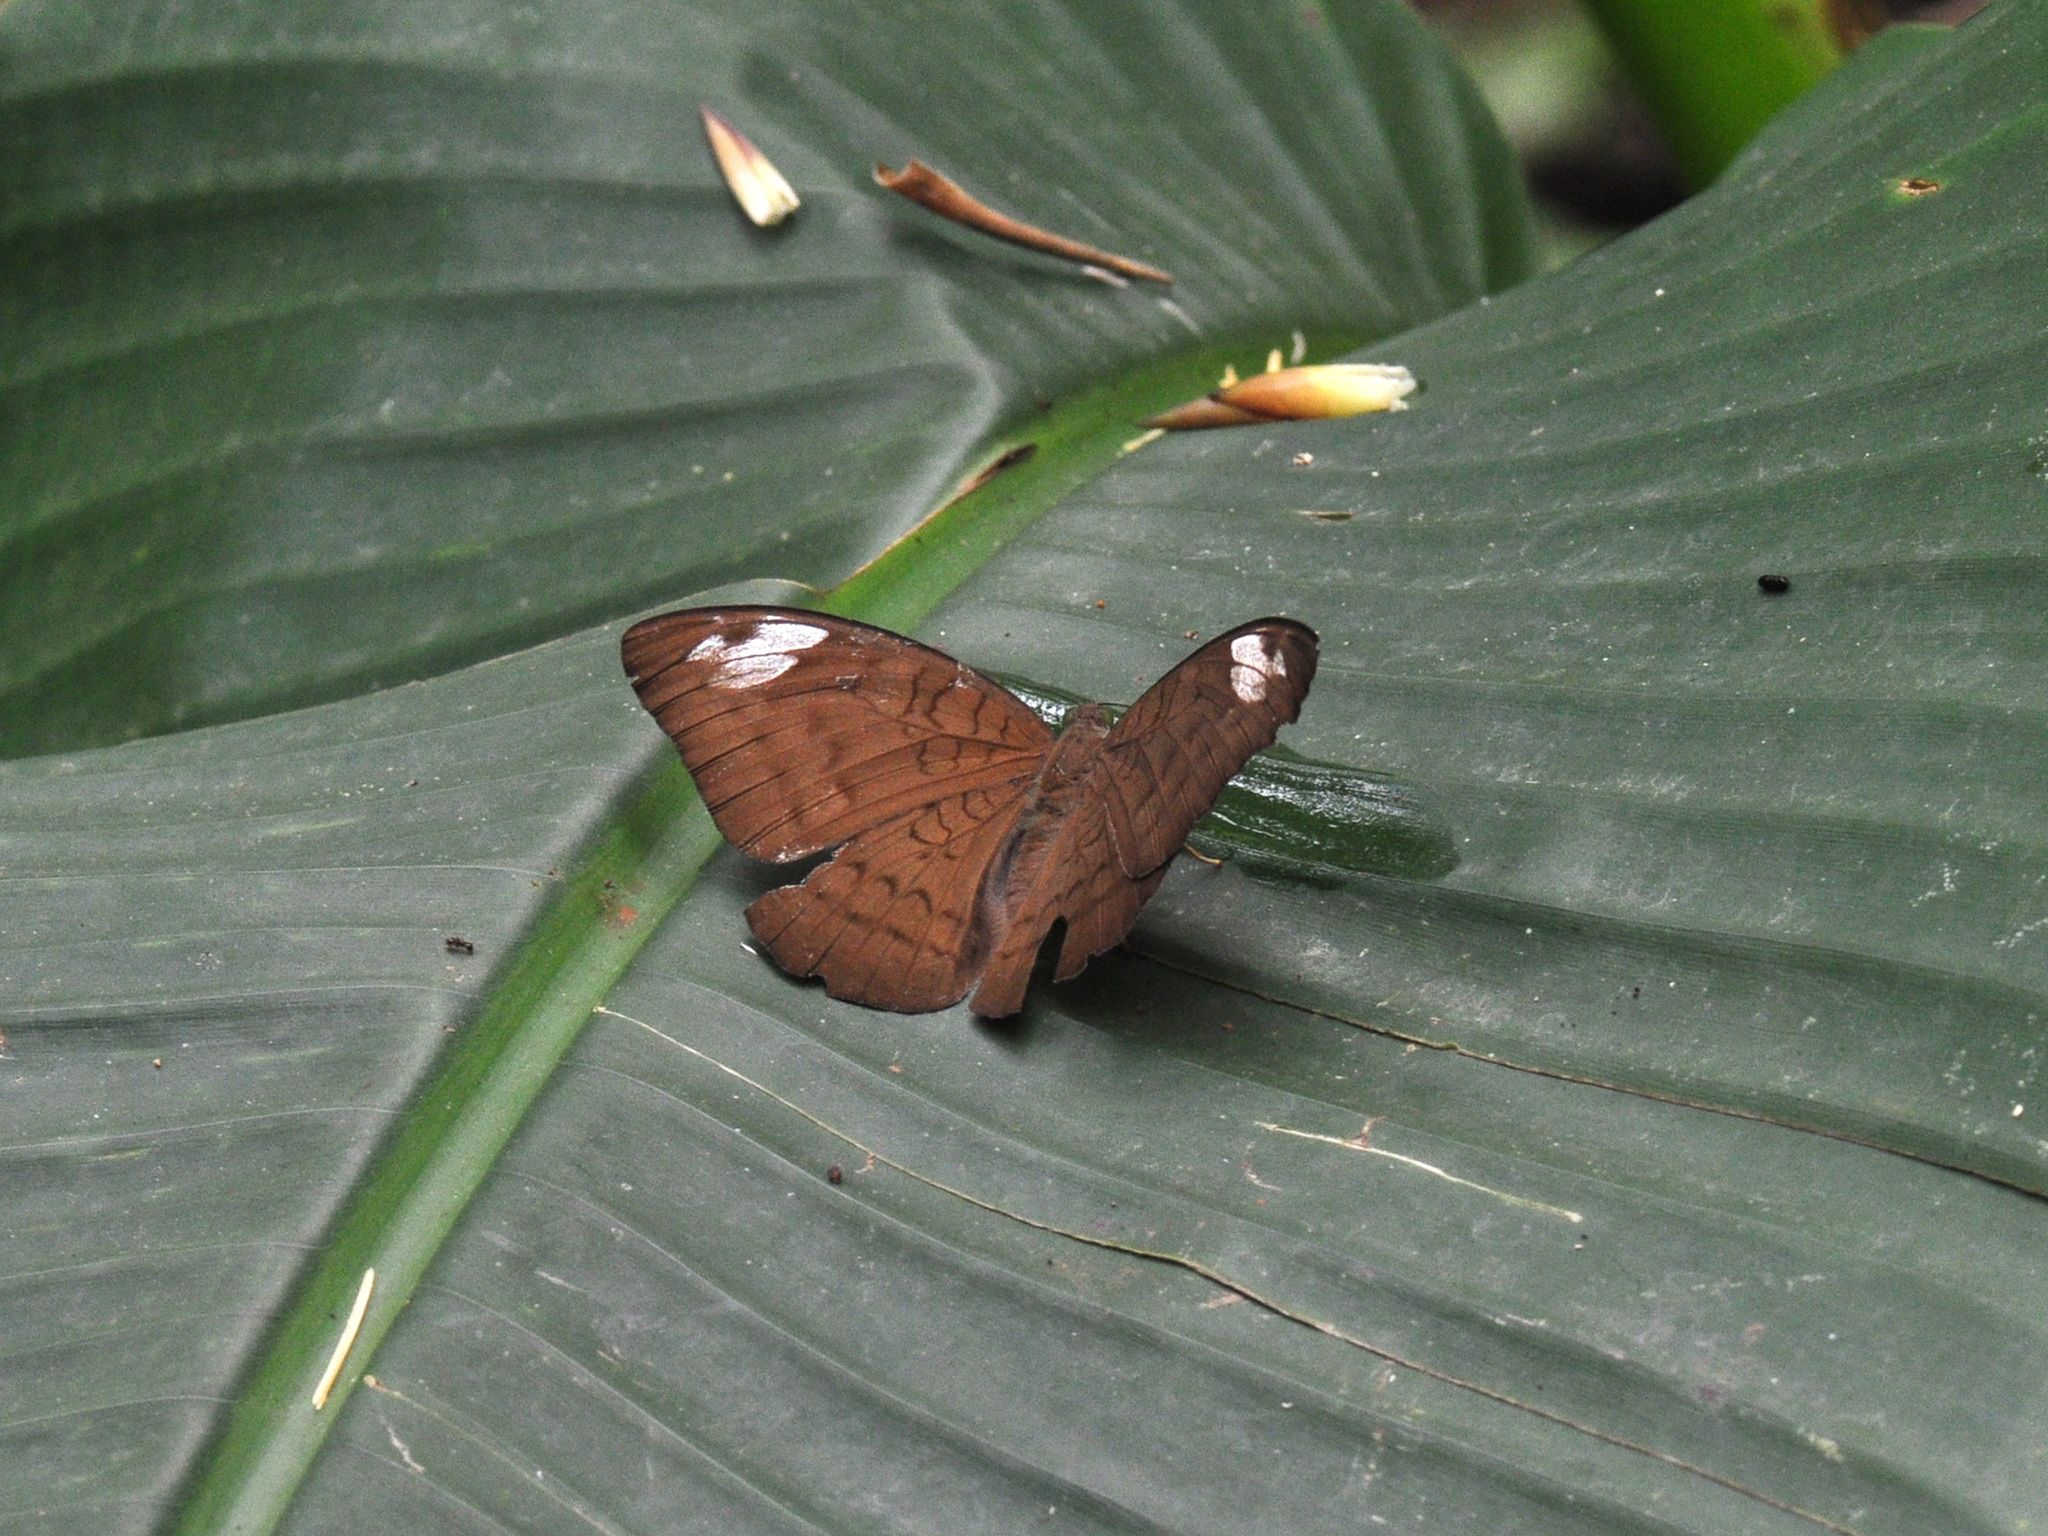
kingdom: Animalia
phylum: Arthropoda
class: Insecta
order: Lepidoptera
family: Nymphalidae
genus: Tanaecia
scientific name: Tanaecia julii
